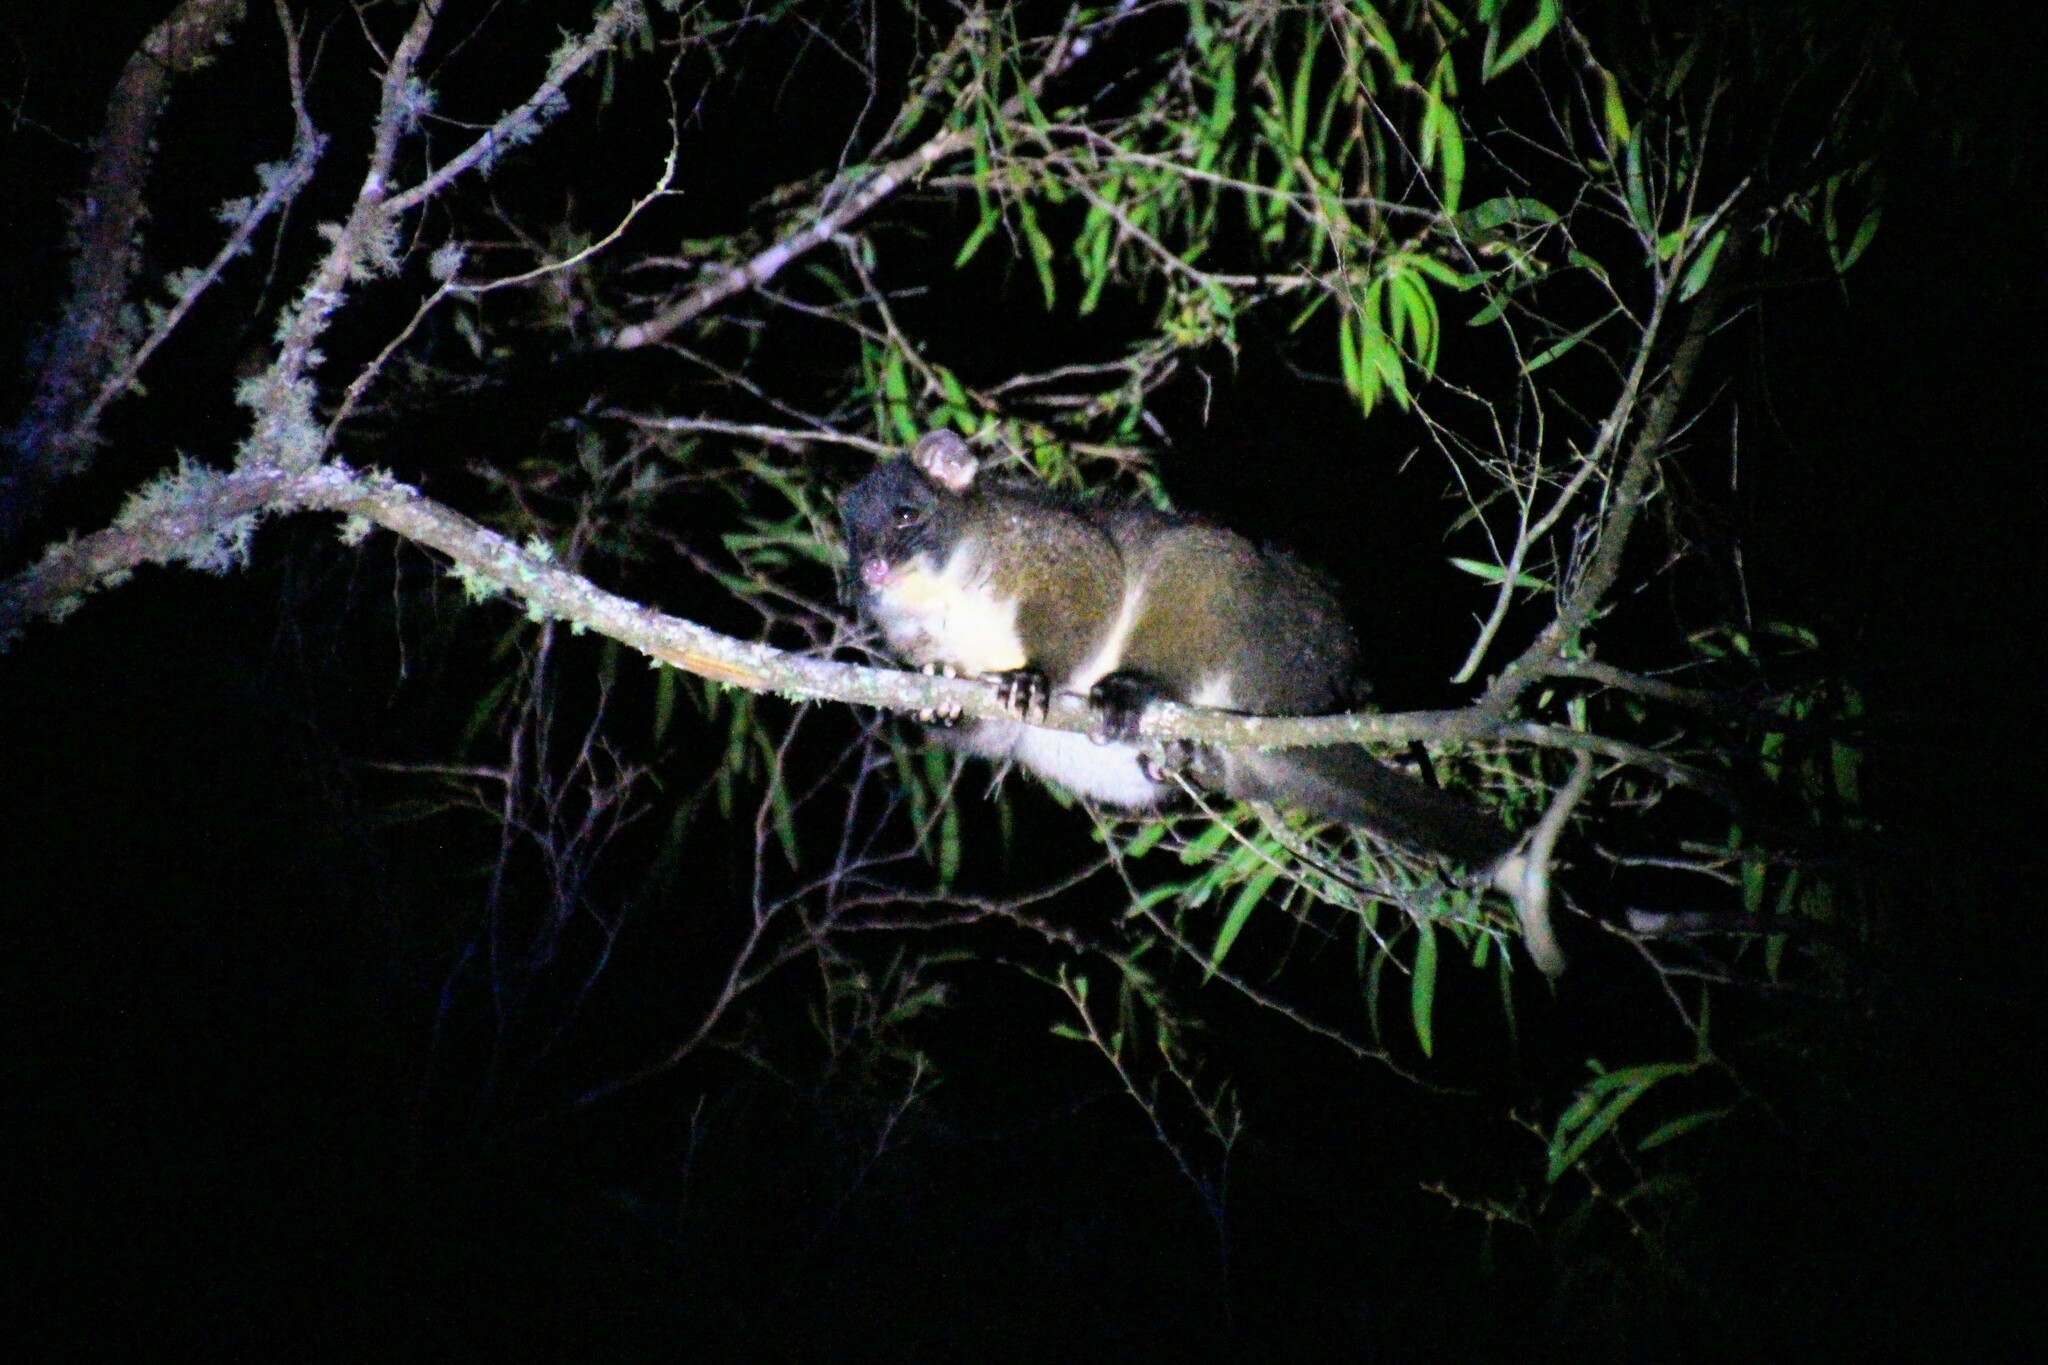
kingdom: Animalia
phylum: Chordata
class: Mammalia
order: Diprotodontia
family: Pseudocheiridae
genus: Pseudocheirus
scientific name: Pseudocheirus peregrinus
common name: Common ringtail possum
